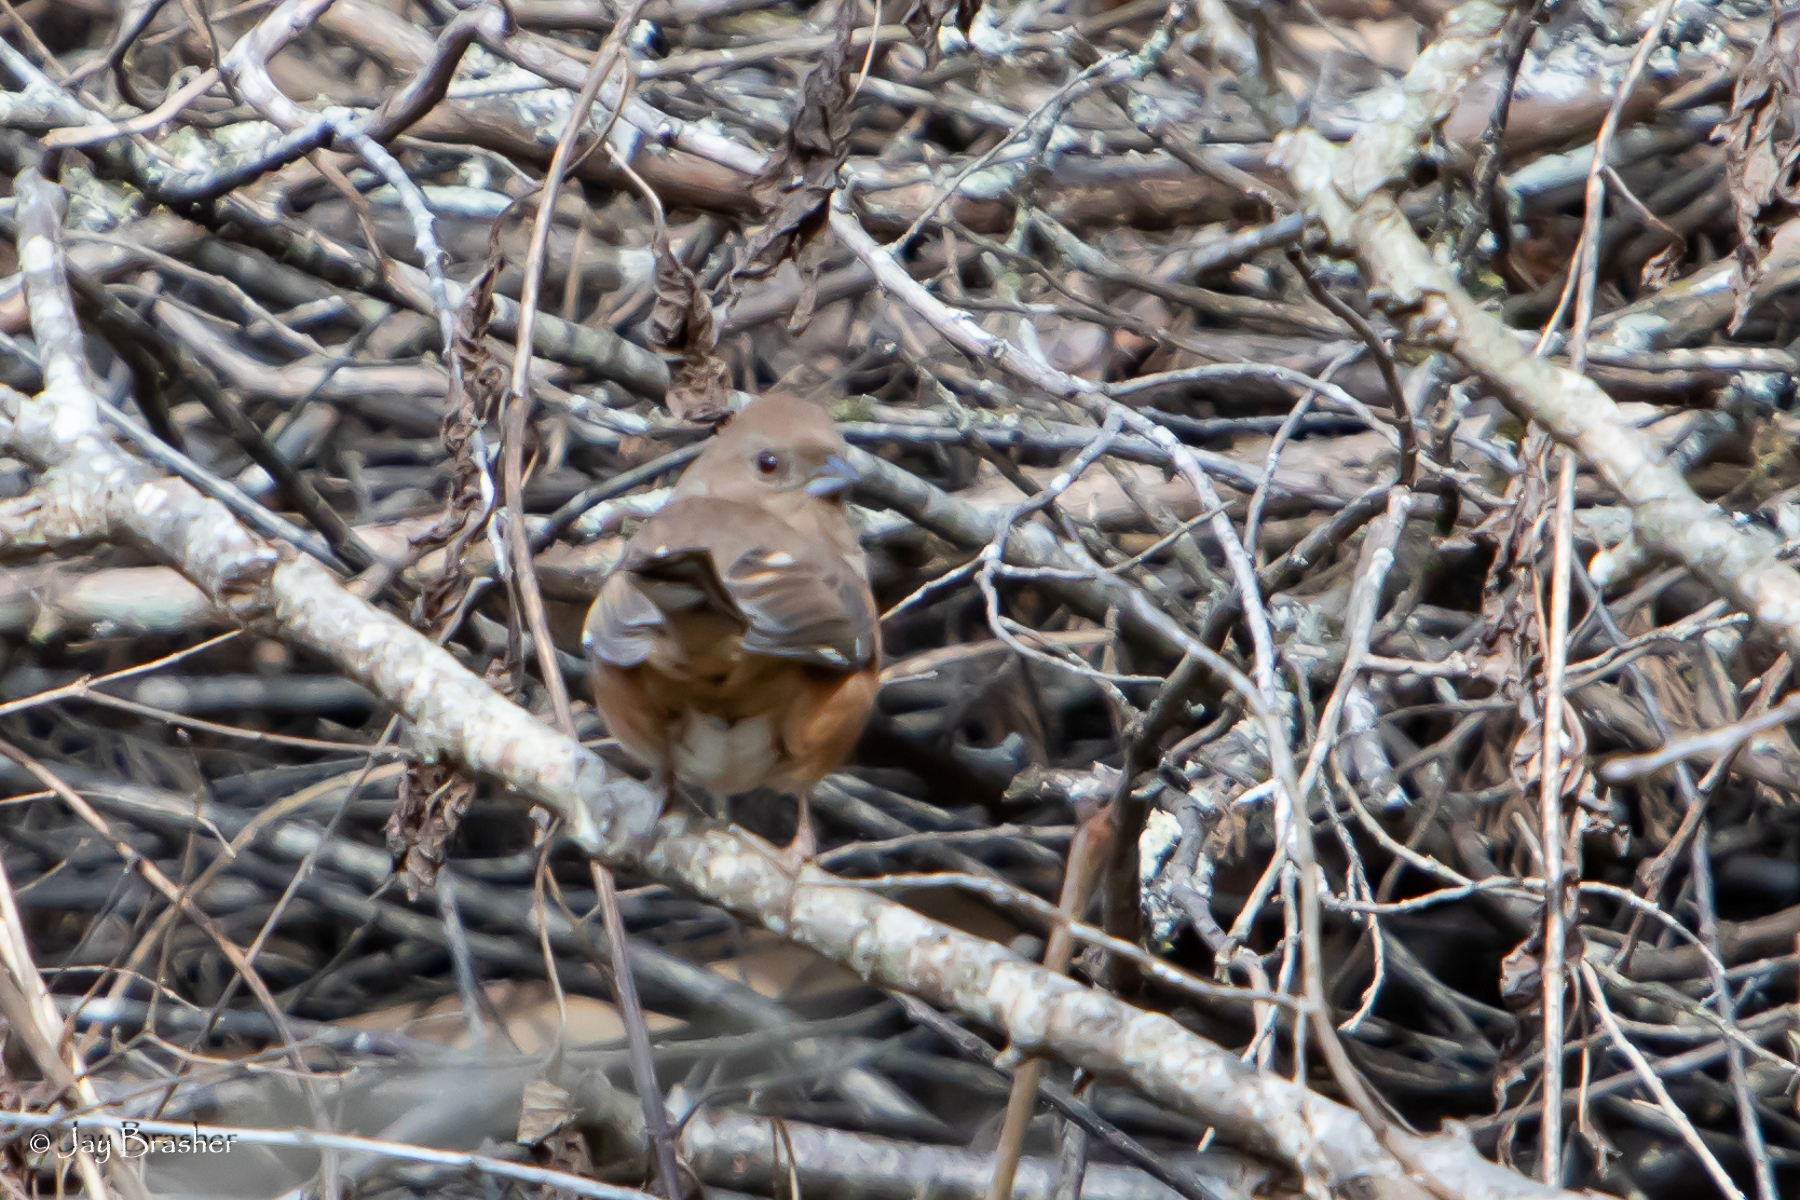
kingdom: Animalia
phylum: Chordata
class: Aves
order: Passeriformes
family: Passerellidae
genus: Pipilo
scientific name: Pipilo erythrophthalmus
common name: Eastern towhee
